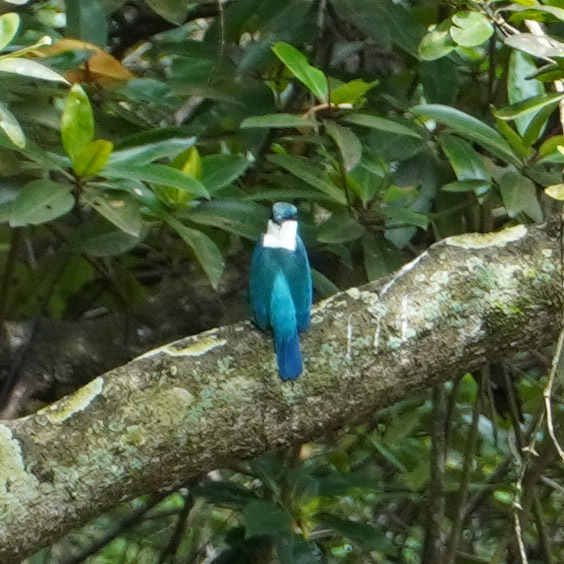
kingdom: Animalia
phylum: Chordata
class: Aves
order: Coraciiformes
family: Alcedinidae
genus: Todiramphus
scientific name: Todiramphus chloris
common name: Collared kingfisher
